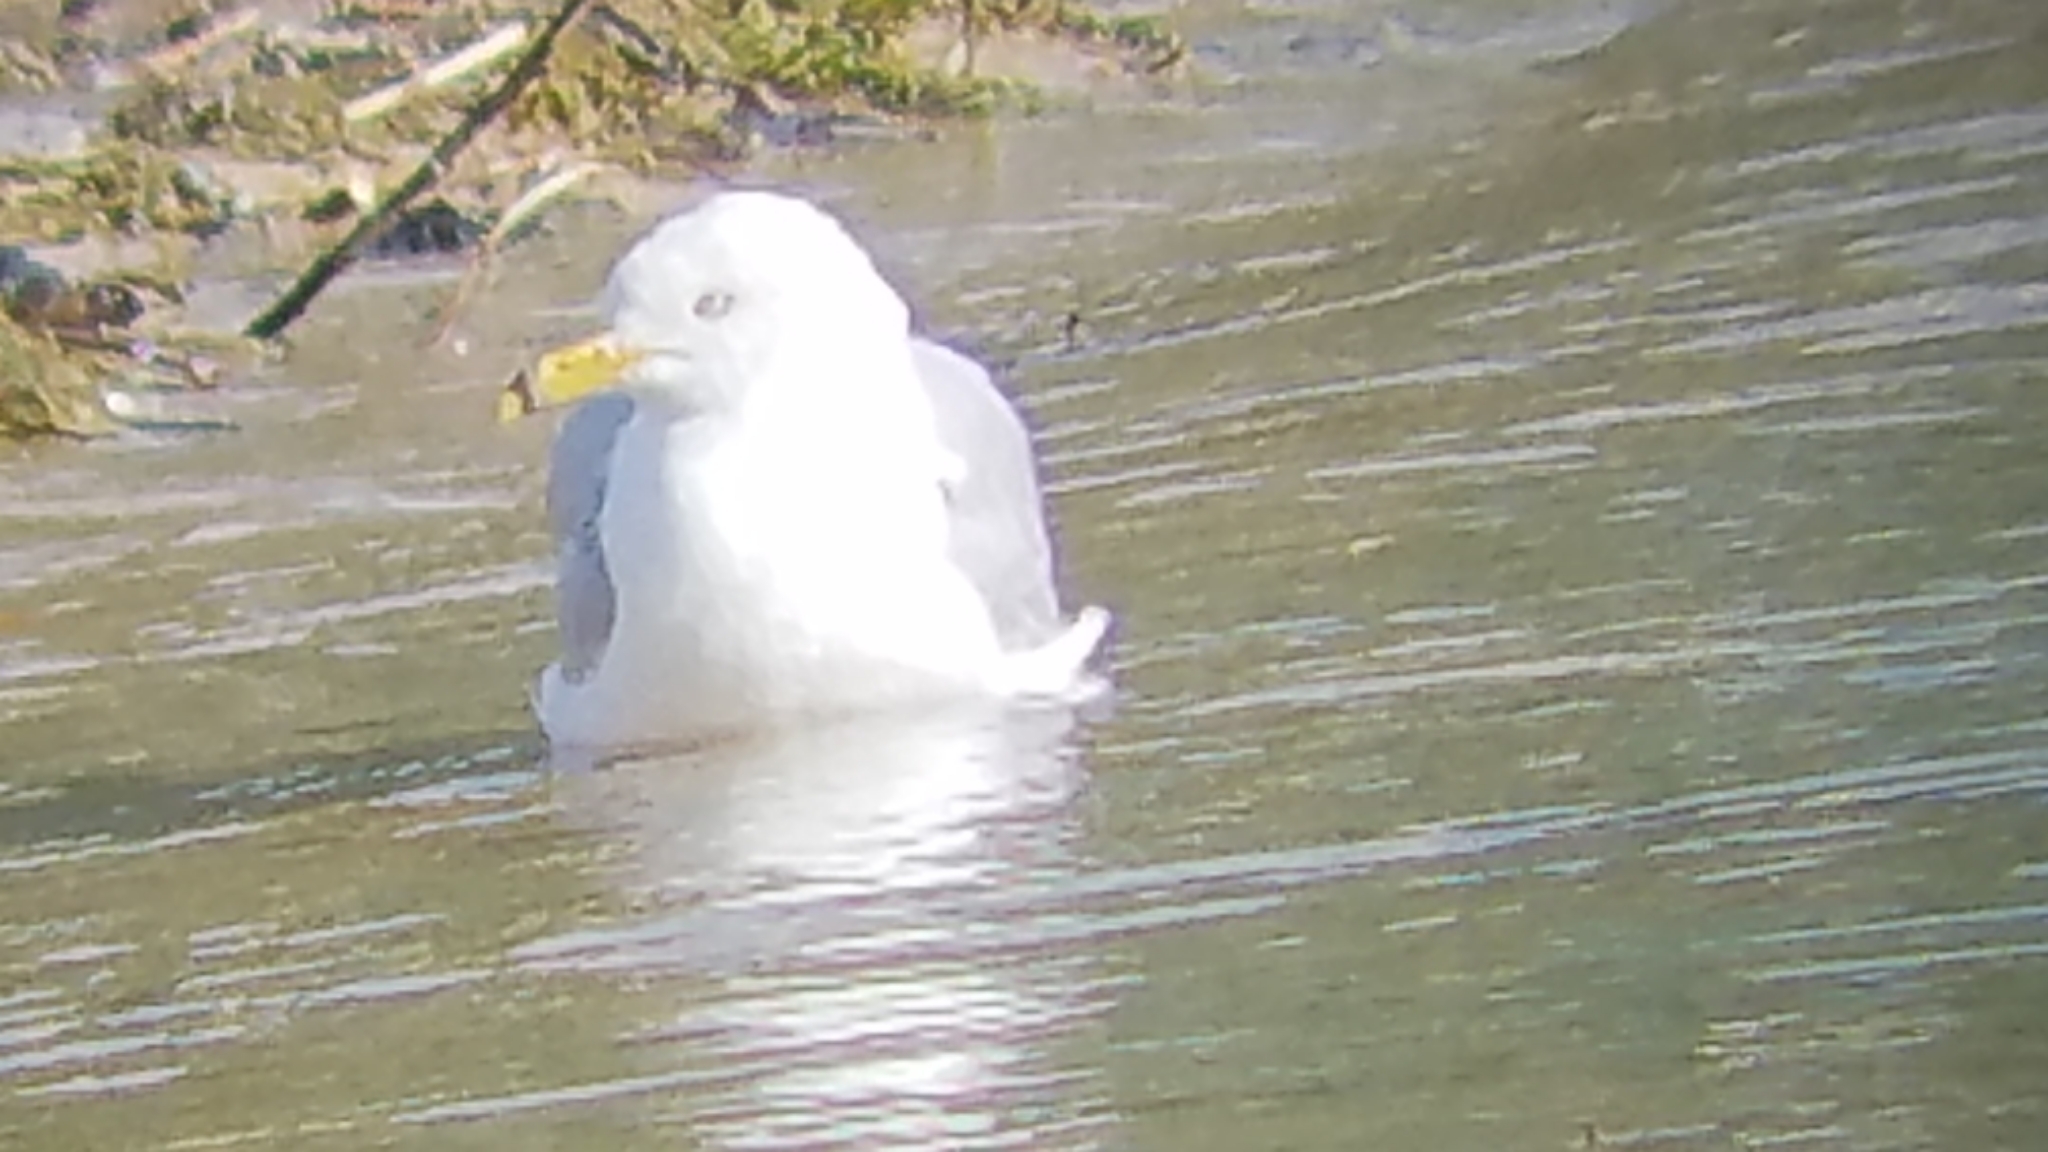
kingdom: Animalia
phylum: Chordata
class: Aves
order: Charadriiformes
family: Laridae
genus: Larus
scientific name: Larus delawarensis
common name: Ring-billed gull
